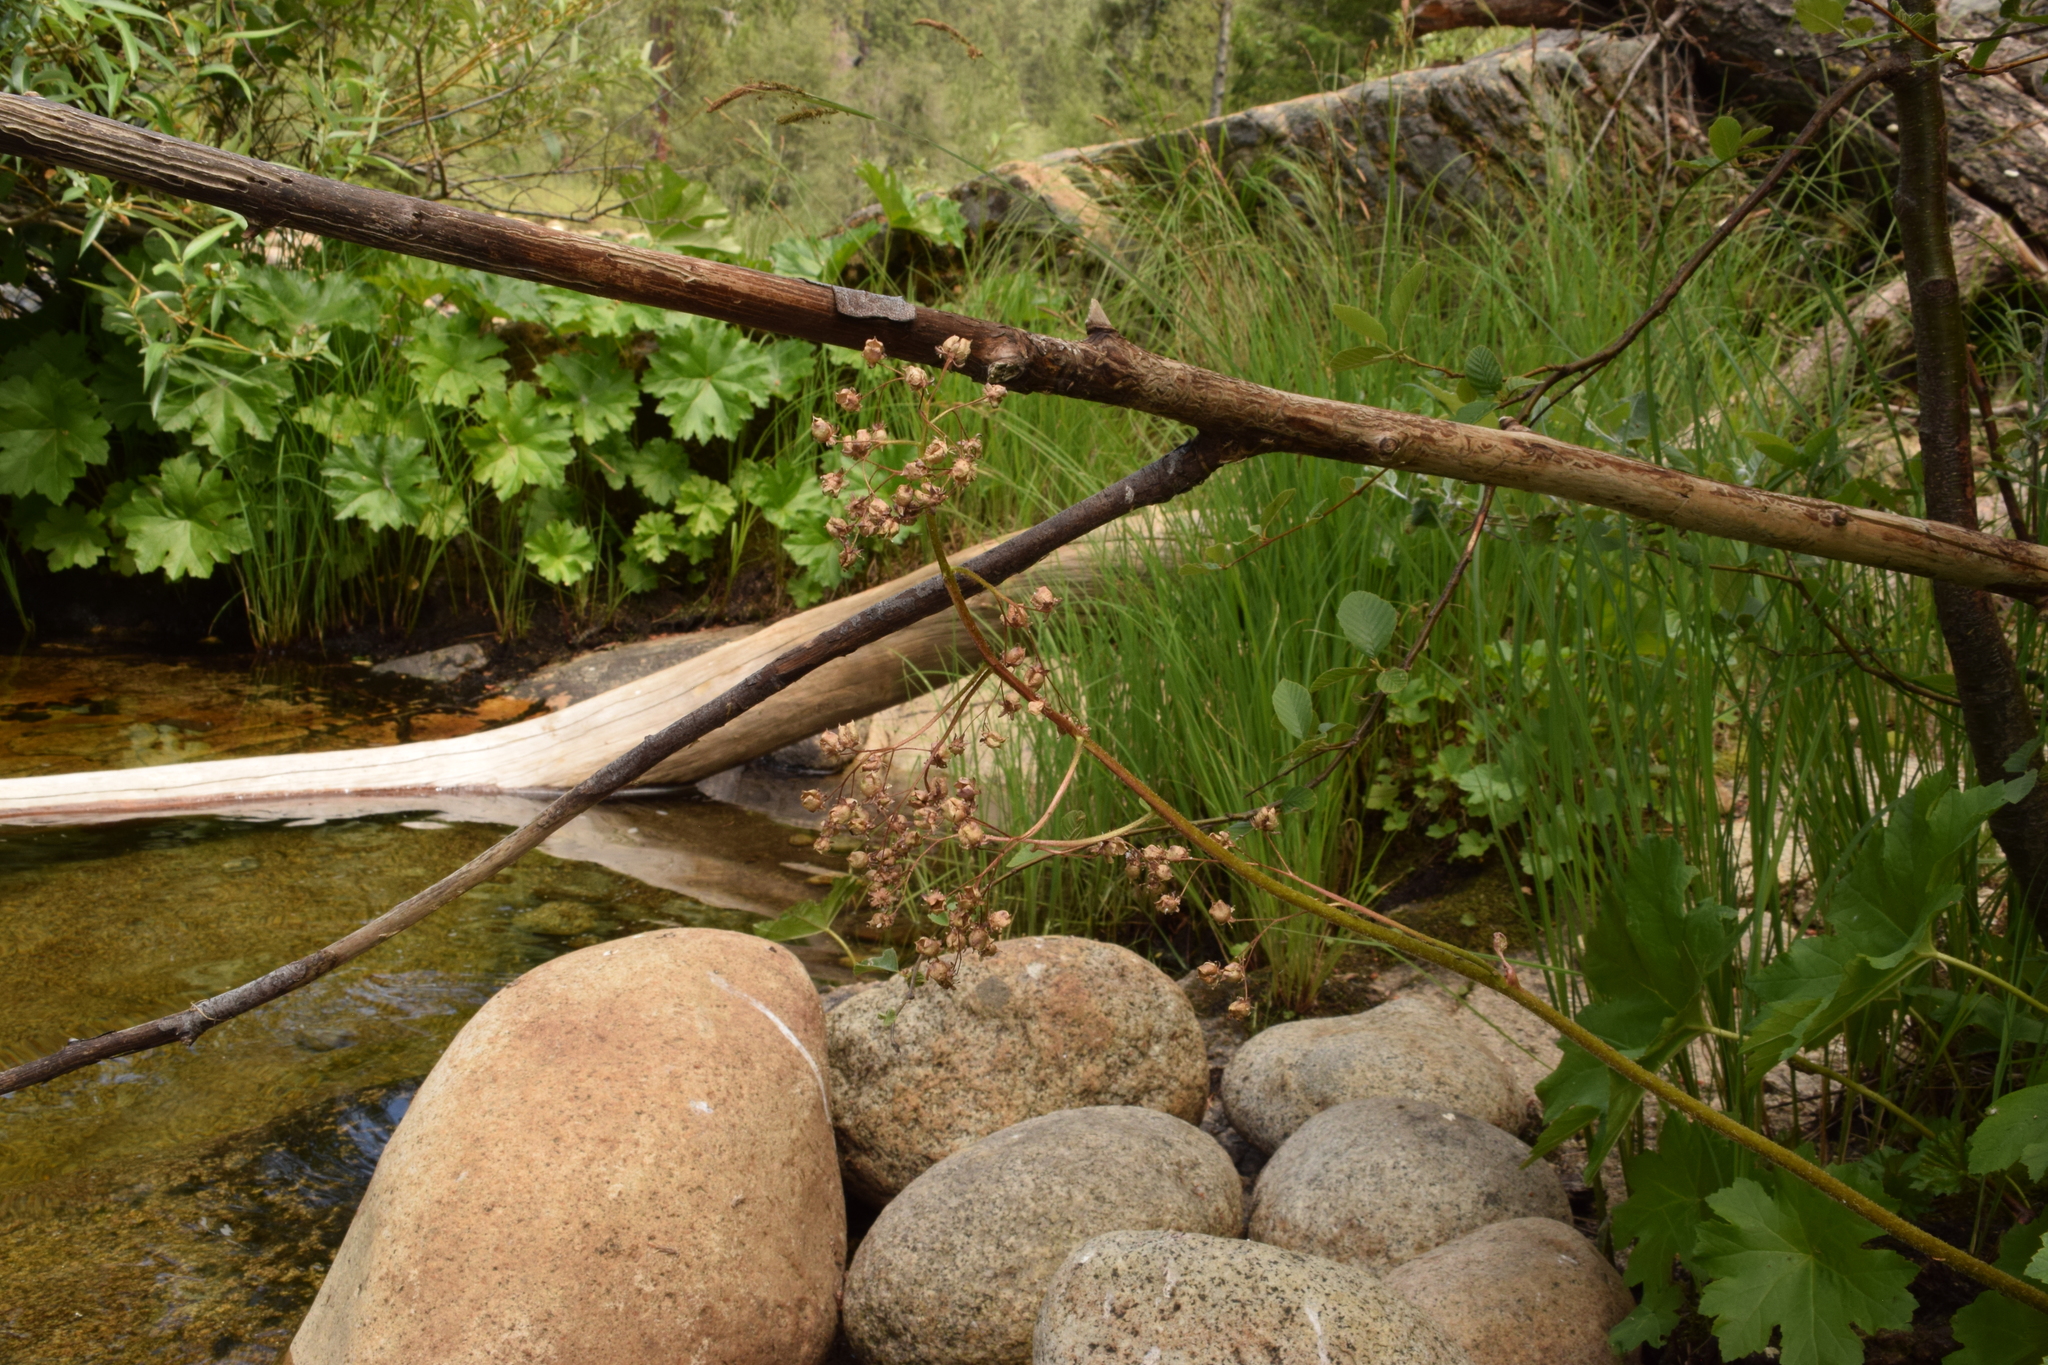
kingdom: Plantae
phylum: Tracheophyta
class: Magnoliopsida
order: Saxifragales
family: Saxifragaceae
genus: Darmera
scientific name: Darmera peltata
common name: Indian-rhubarb
